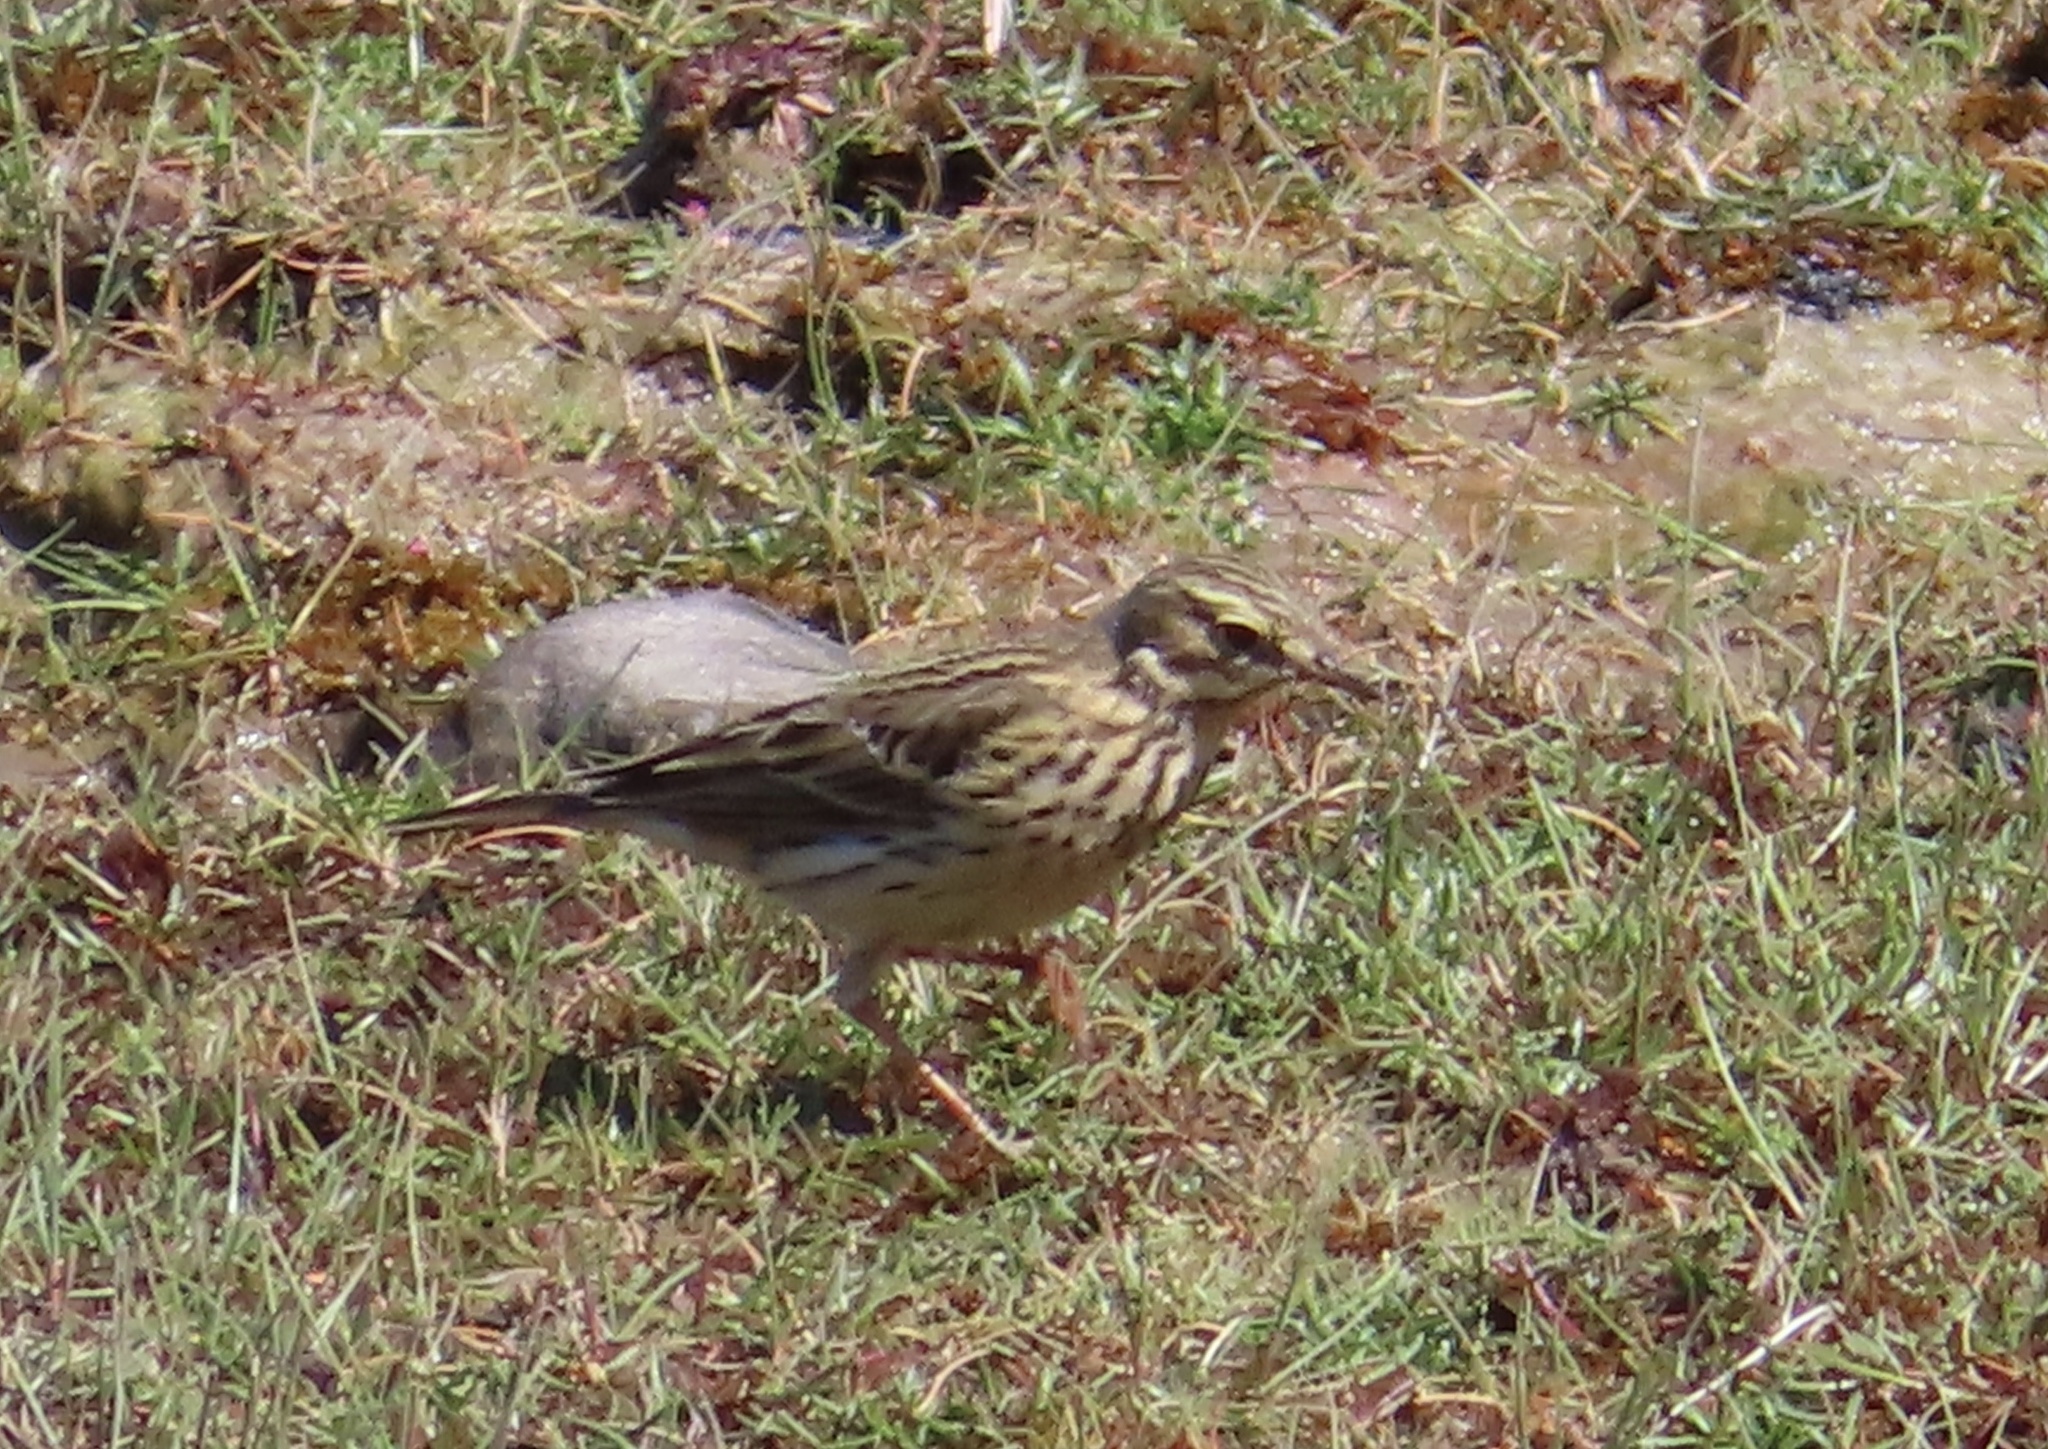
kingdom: Animalia
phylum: Chordata
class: Aves
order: Passeriformes
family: Motacillidae
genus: Anthus
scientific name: Anthus pratensis
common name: Meadow pipit
